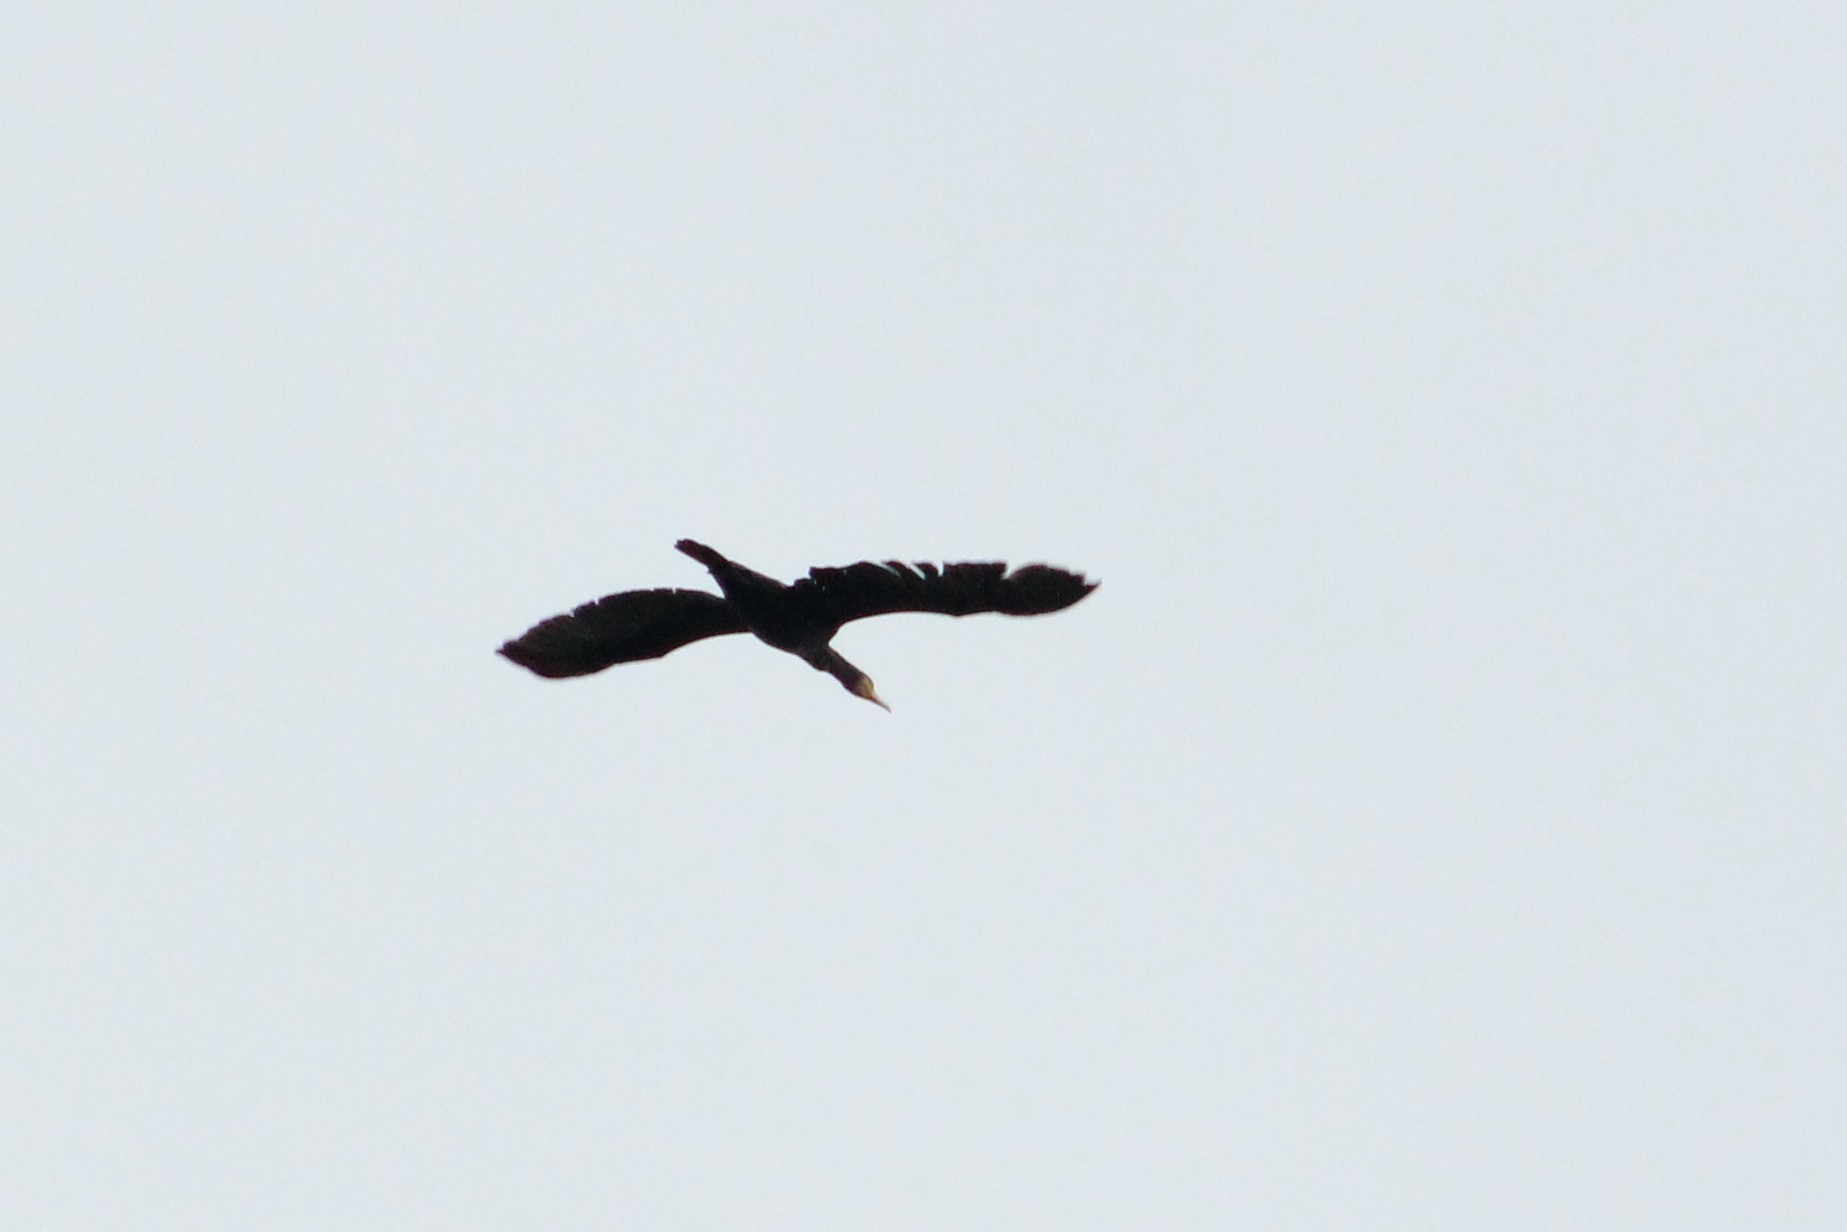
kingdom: Animalia
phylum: Chordata
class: Aves
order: Suliformes
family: Phalacrocoracidae
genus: Phalacrocorax
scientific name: Phalacrocorax carbo
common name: Great cormorant
